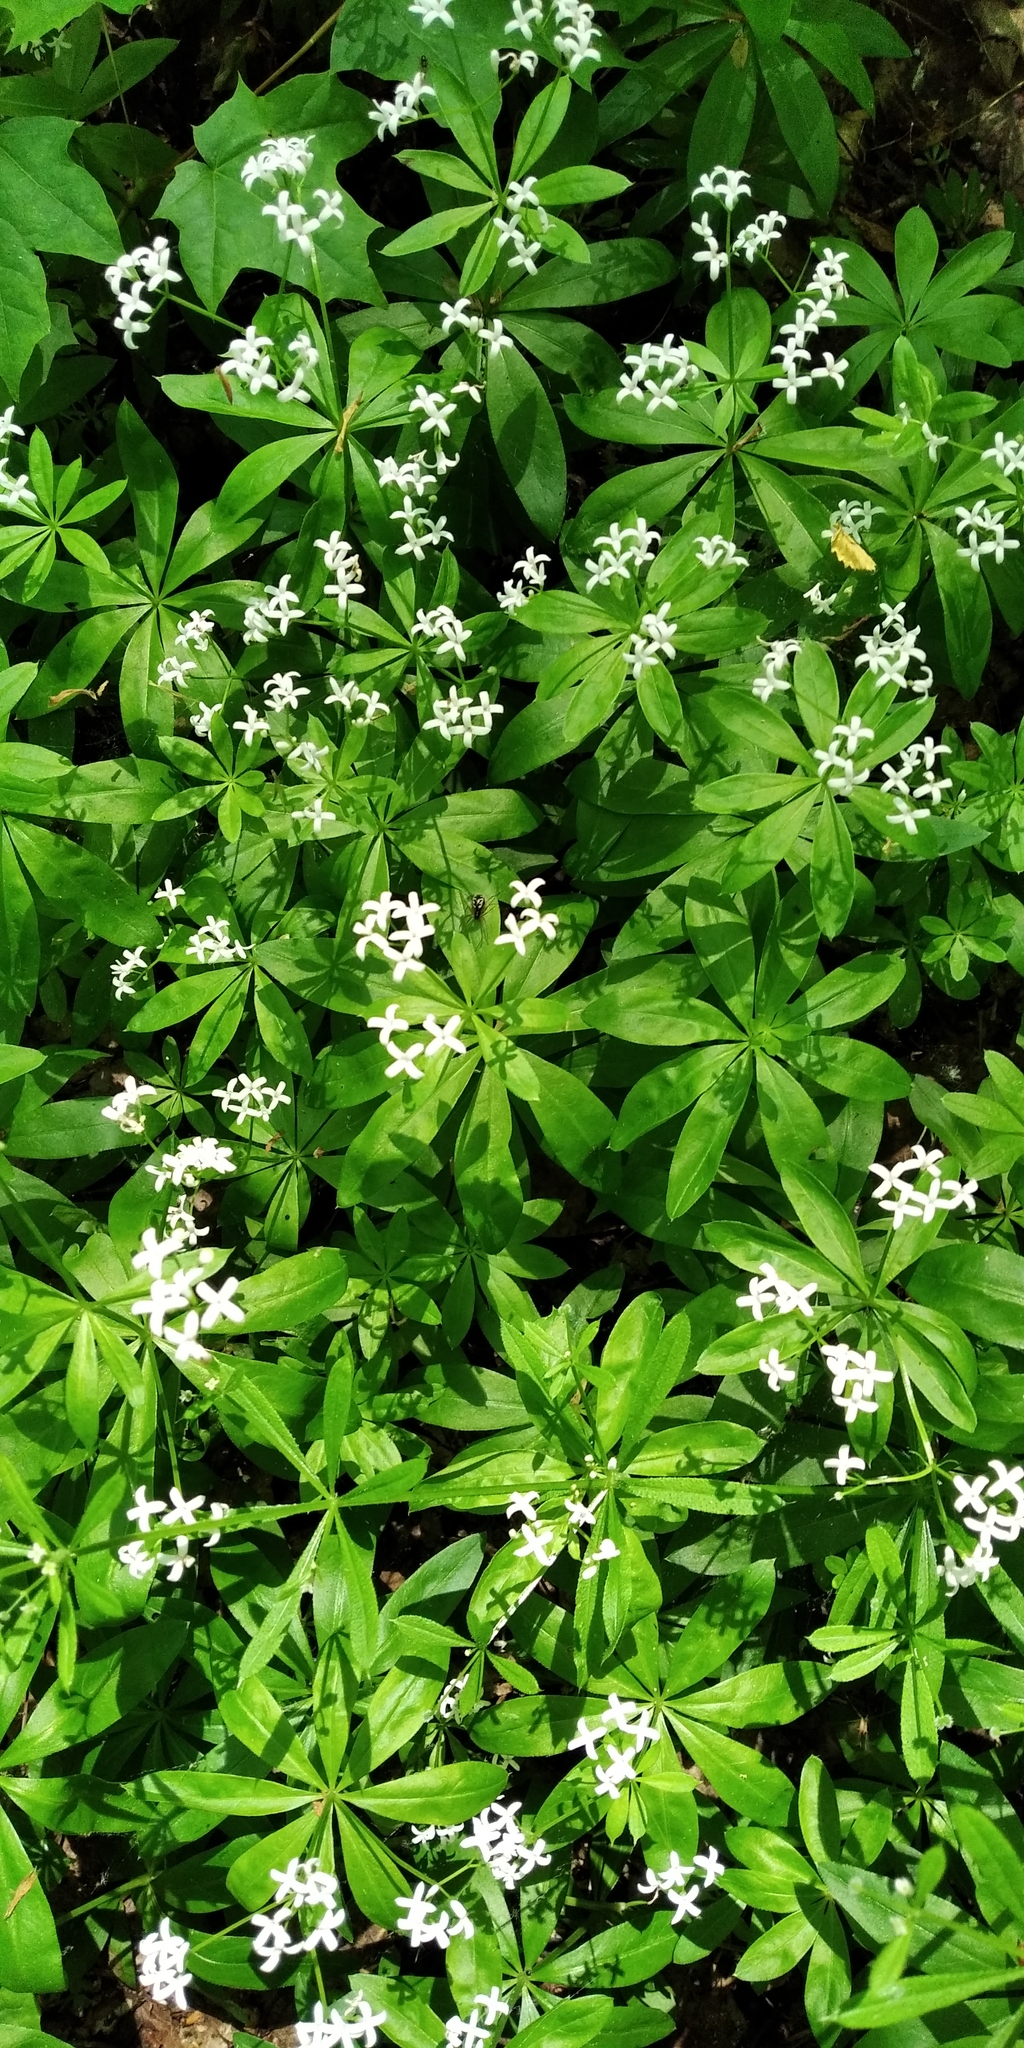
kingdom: Plantae
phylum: Tracheophyta
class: Magnoliopsida
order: Gentianales
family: Rubiaceae
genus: Galium
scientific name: Galium odoratum
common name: Sweet woodruff
